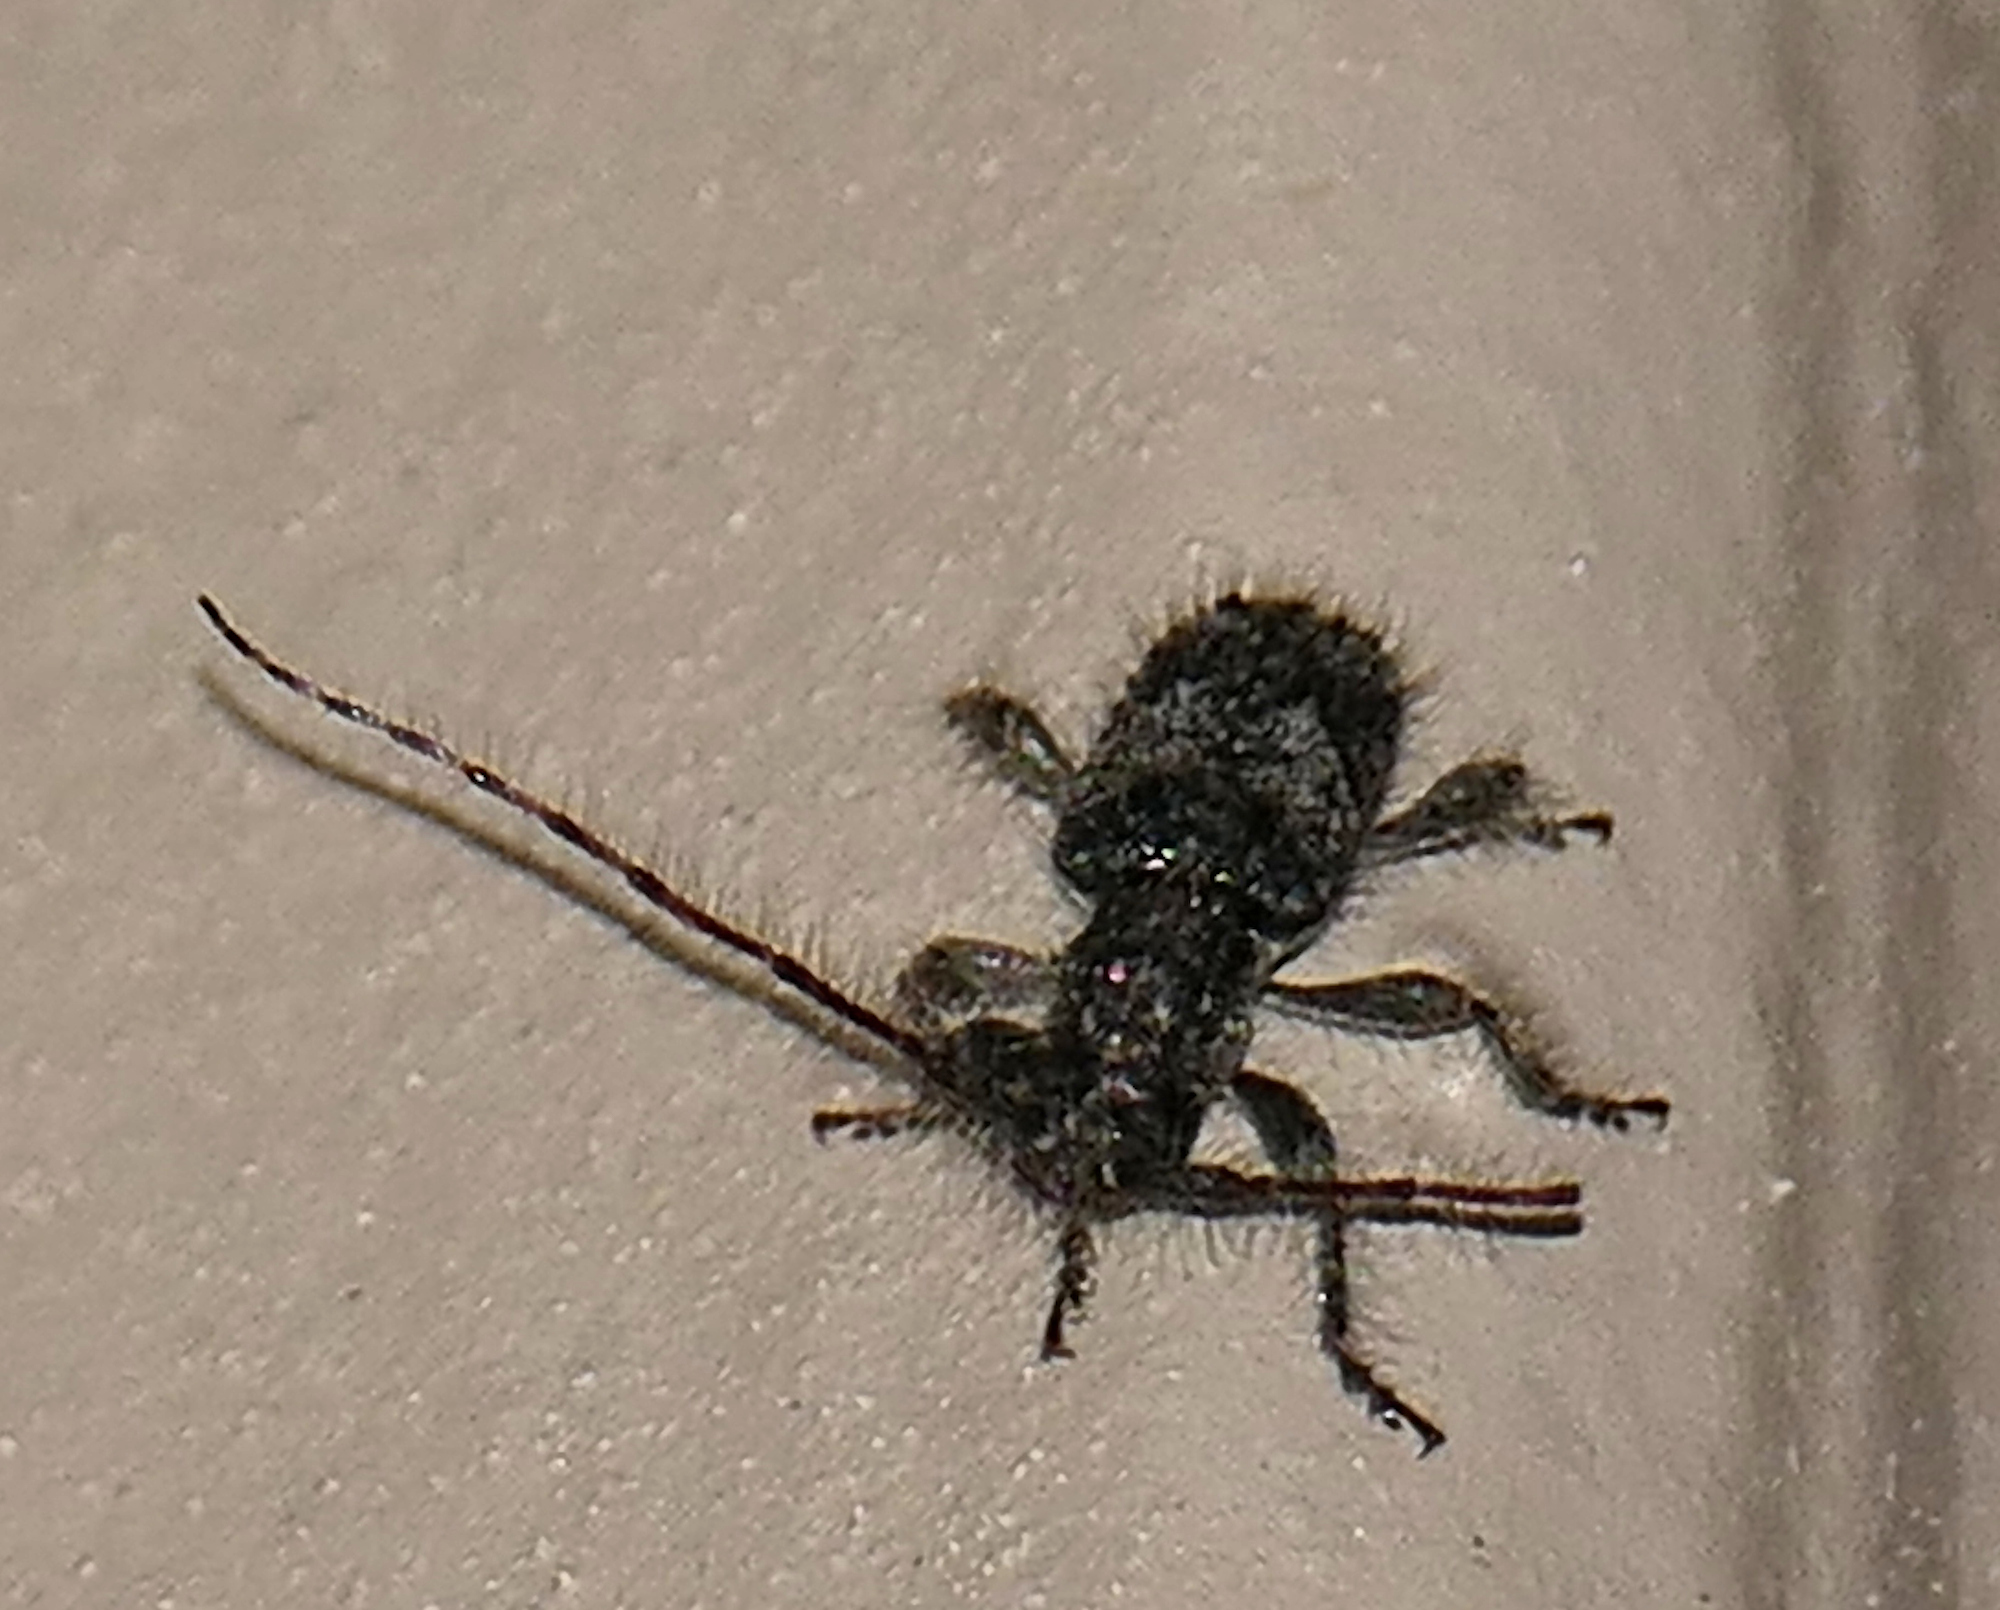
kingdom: Animalia
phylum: Arthropoda
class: Insecta
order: Coleoptera
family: Cerambycidae
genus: Poliaenus
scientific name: Poliaenus
